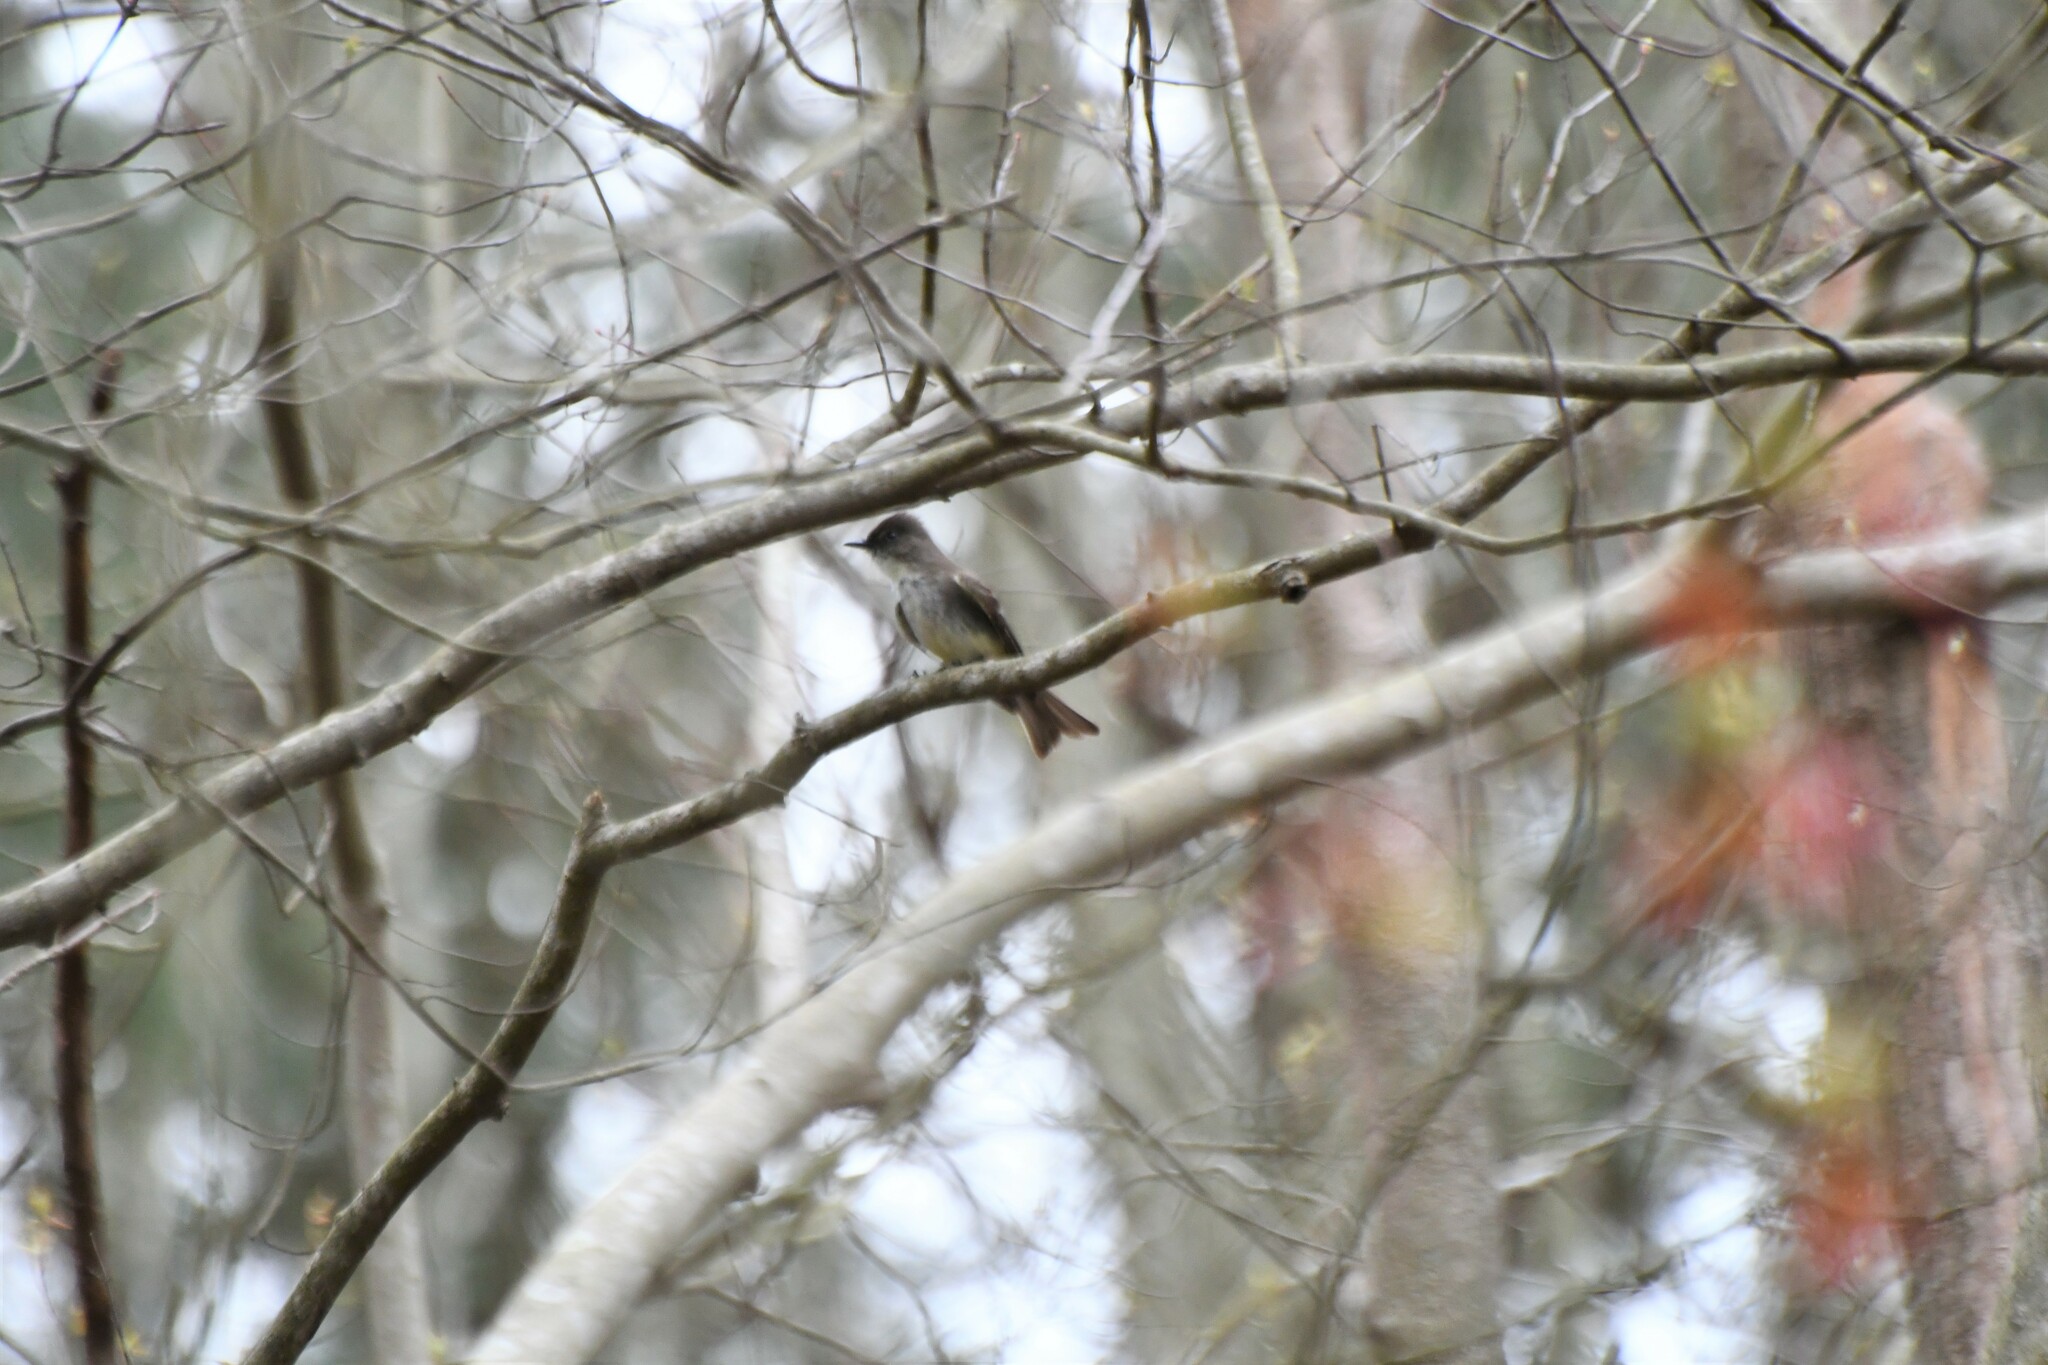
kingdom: Animalia
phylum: Chordata
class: Aves
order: Passeriformes
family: Tyrannidae
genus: Sayornis
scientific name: Sayornis phoebe
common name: Eastern phoebe
